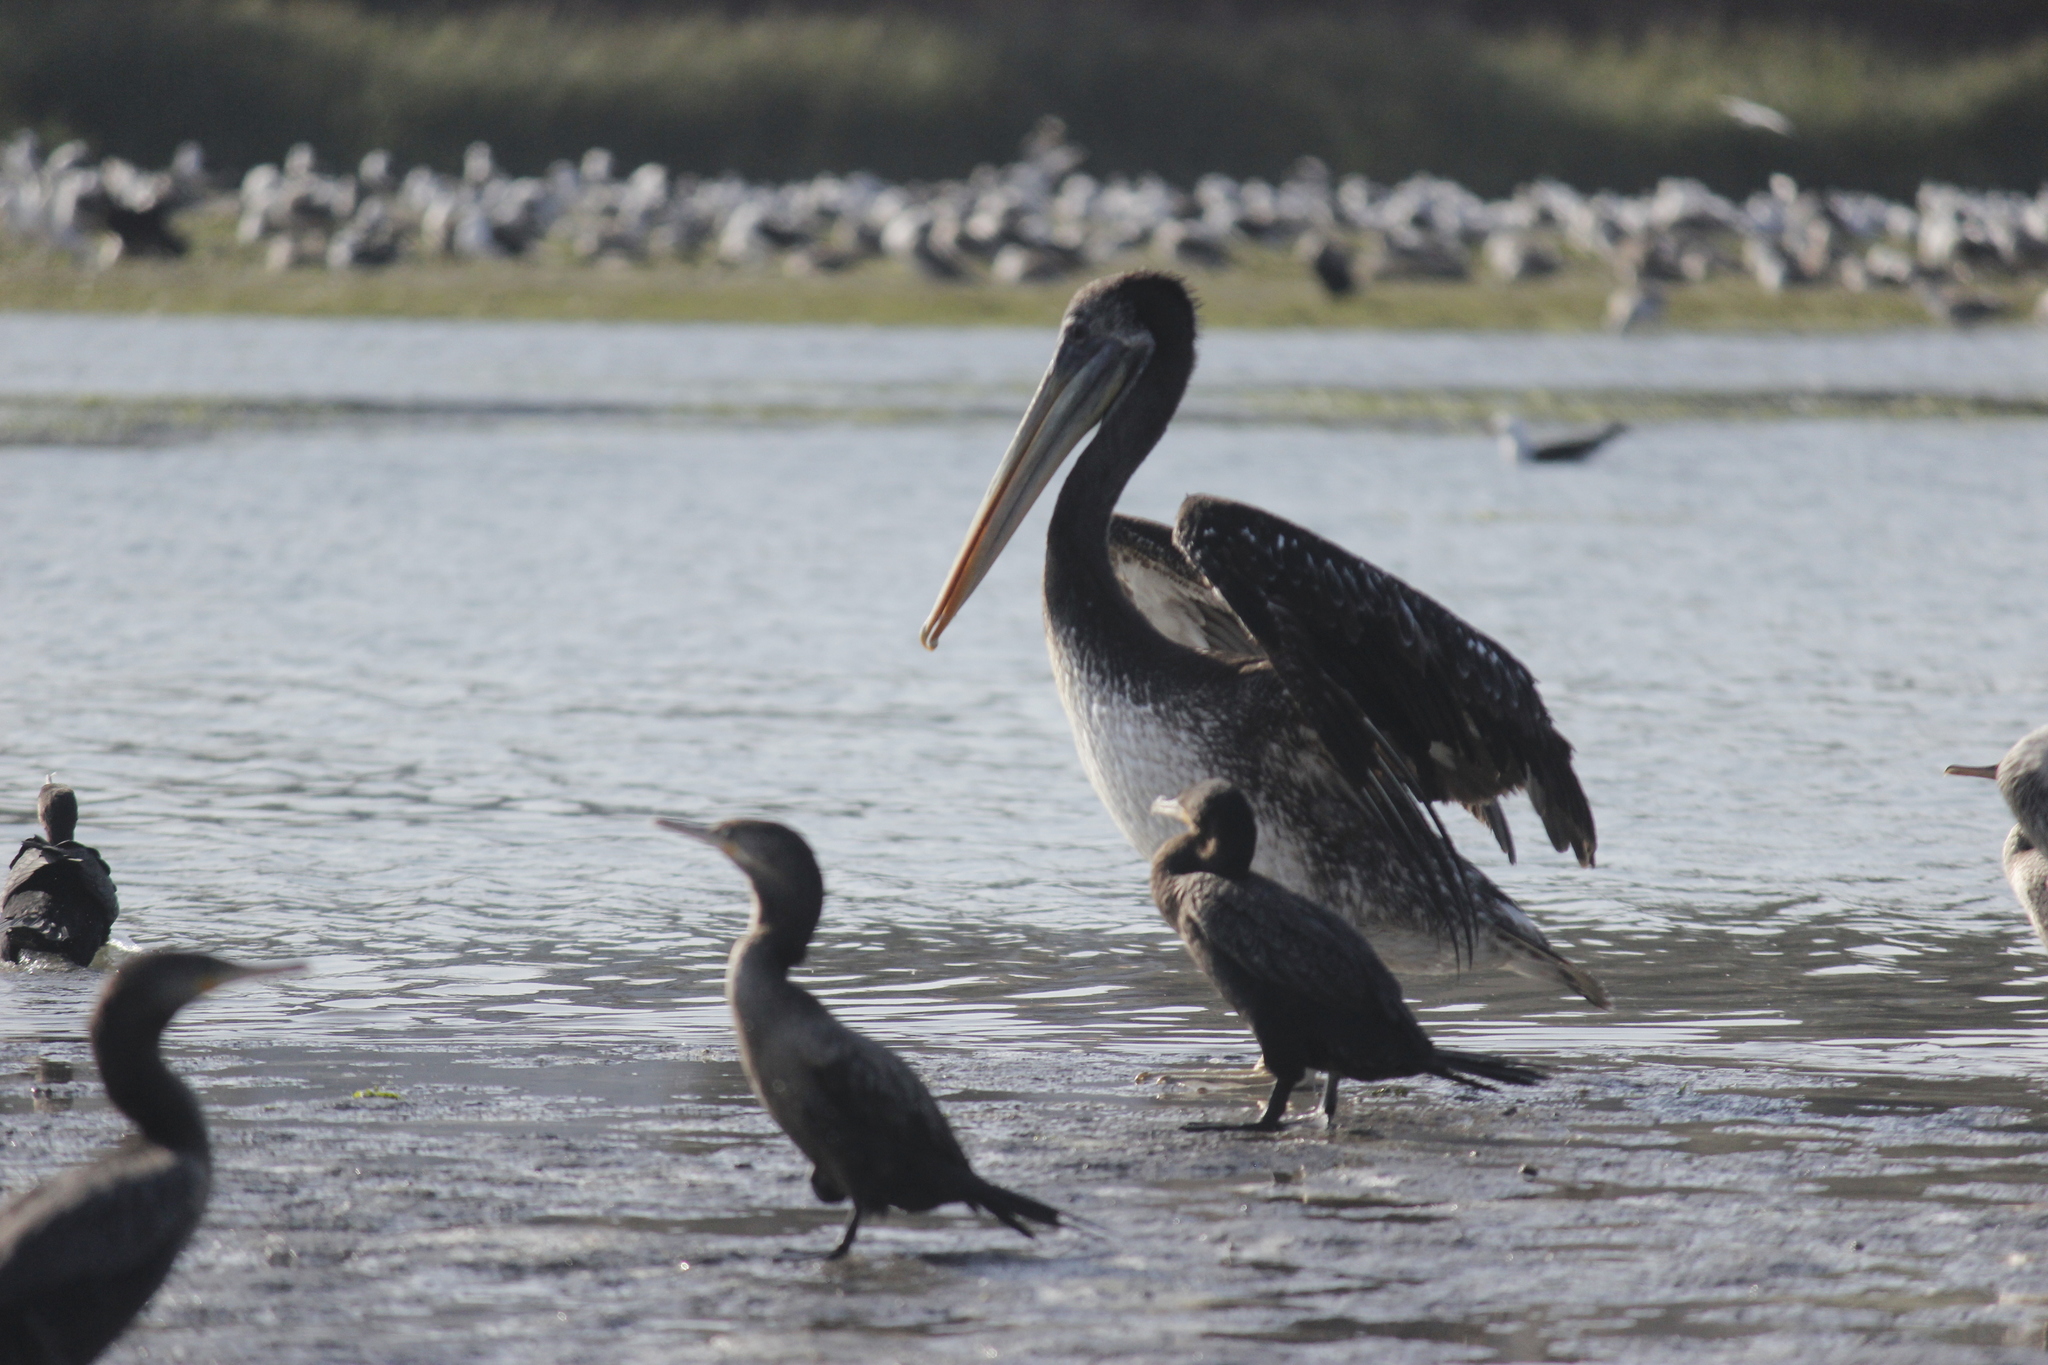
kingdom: Animalia
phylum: Chordata
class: Aves
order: Pelecaniformes
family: Pelecanidae
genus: Pelecanus
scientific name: Pelecanus thagus
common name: Peruvian pelican
